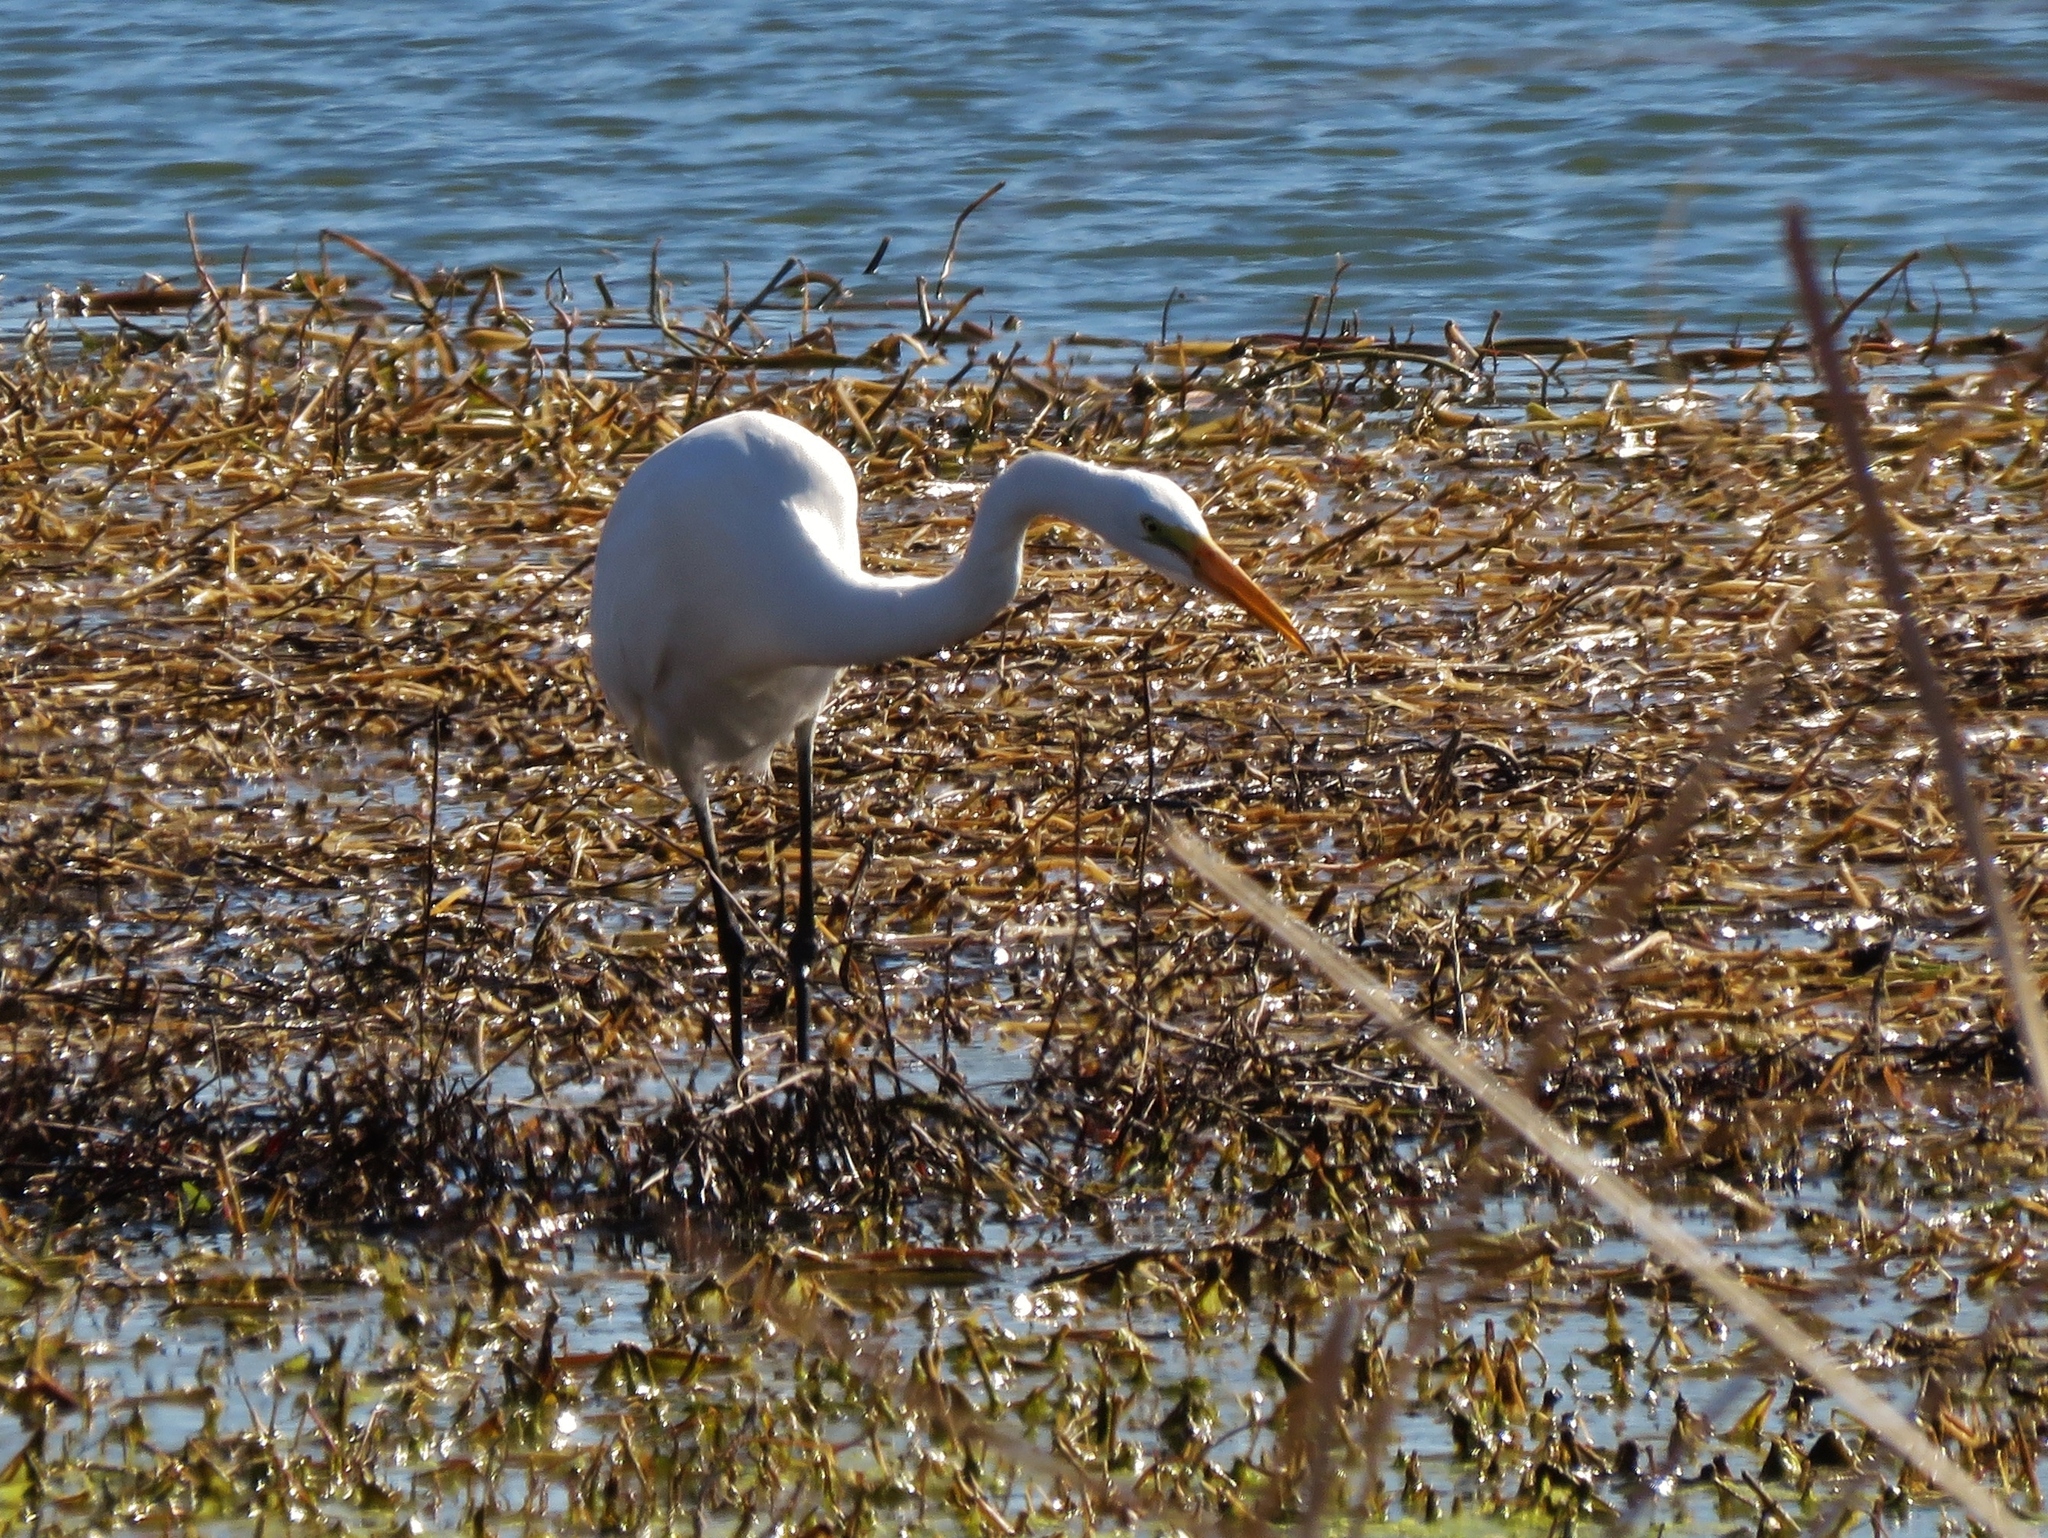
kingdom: Animalia
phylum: Chordata
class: Aves
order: Pelecaniformes
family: Ardeidae
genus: Ardea
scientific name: Ardea alba
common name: Great egret
